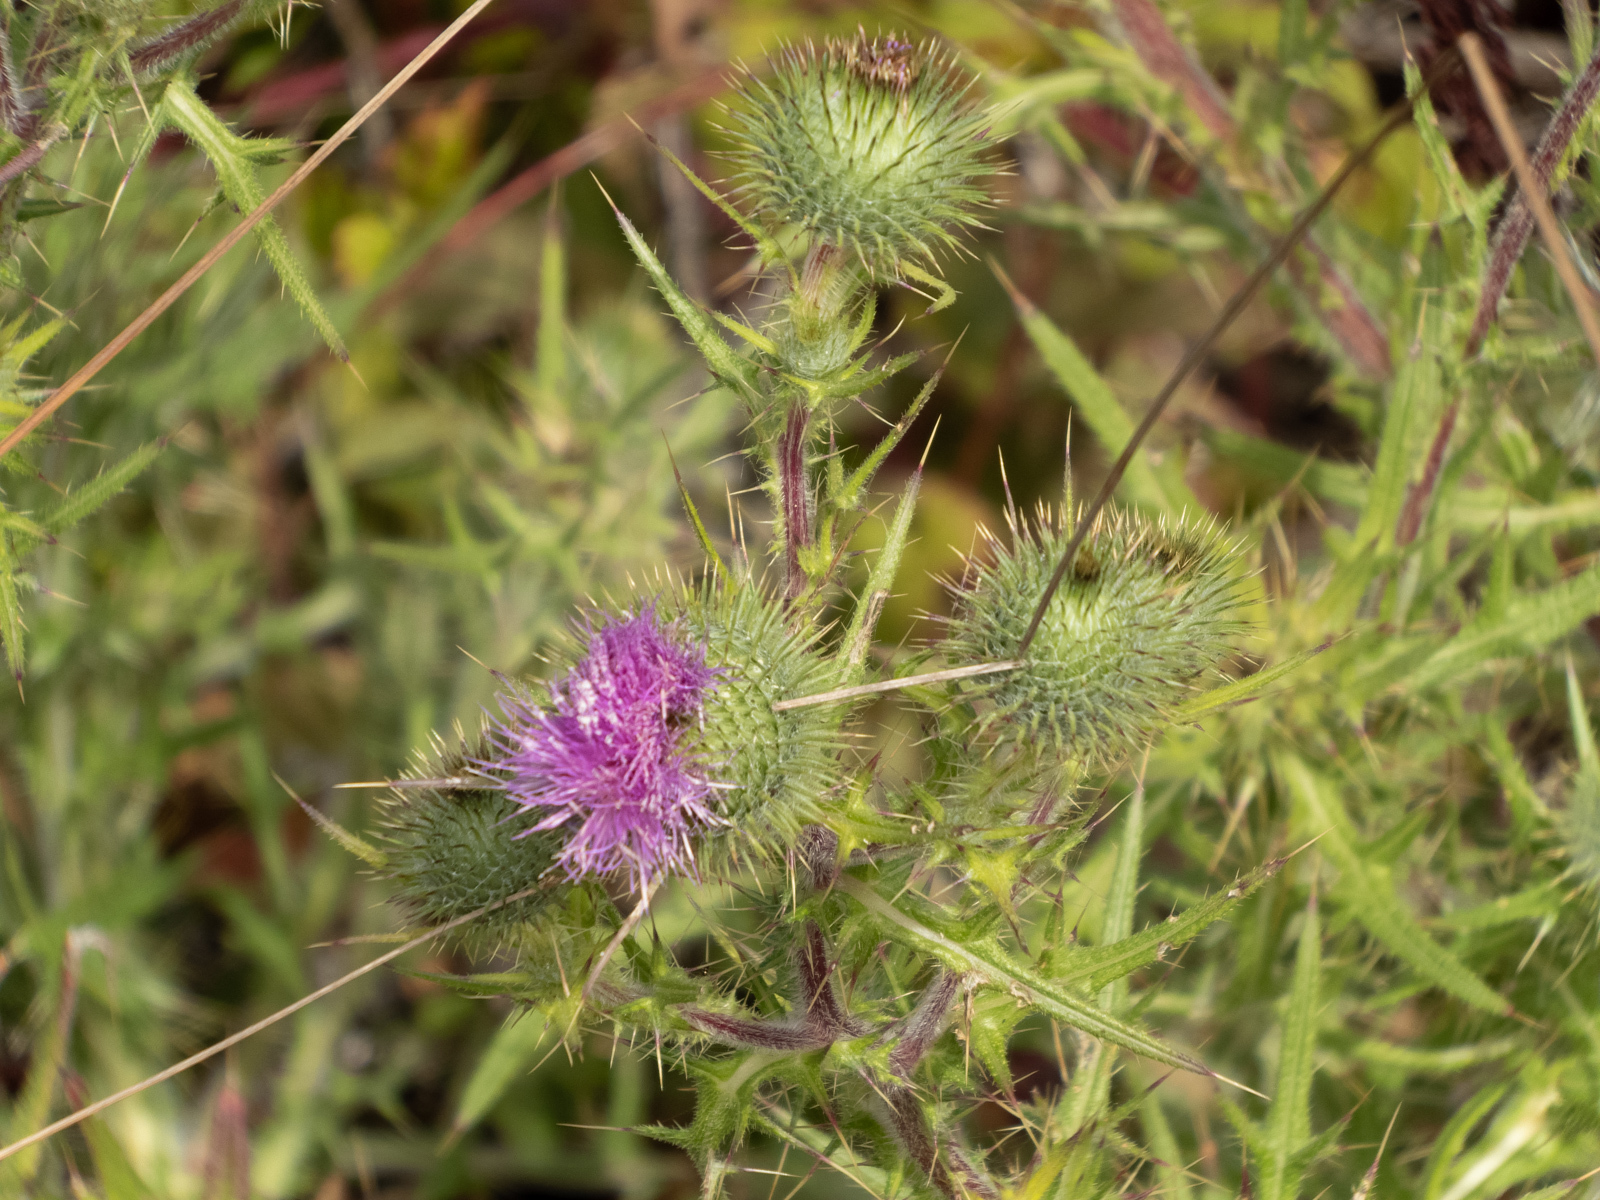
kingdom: Plantae
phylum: Tracheophyta
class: Magnoliopsida
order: Asterales
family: Asteraceae
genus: Cirsium
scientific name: Cirsium vulgare
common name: Bull thistle
